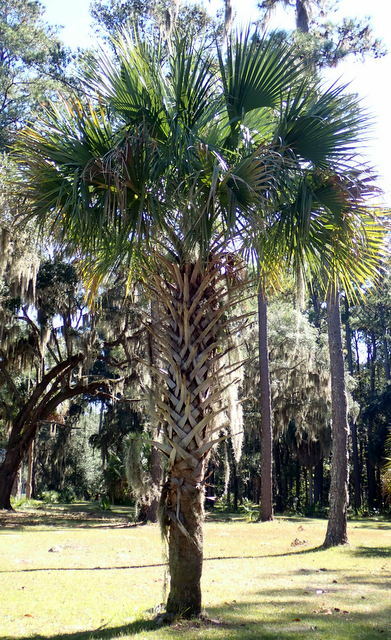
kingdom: Plantae
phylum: Tracheophyta
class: Liliopsida
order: Arecales
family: Arecaceae
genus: Sabal
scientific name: Sabal palmetto
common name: Blue palmetto
